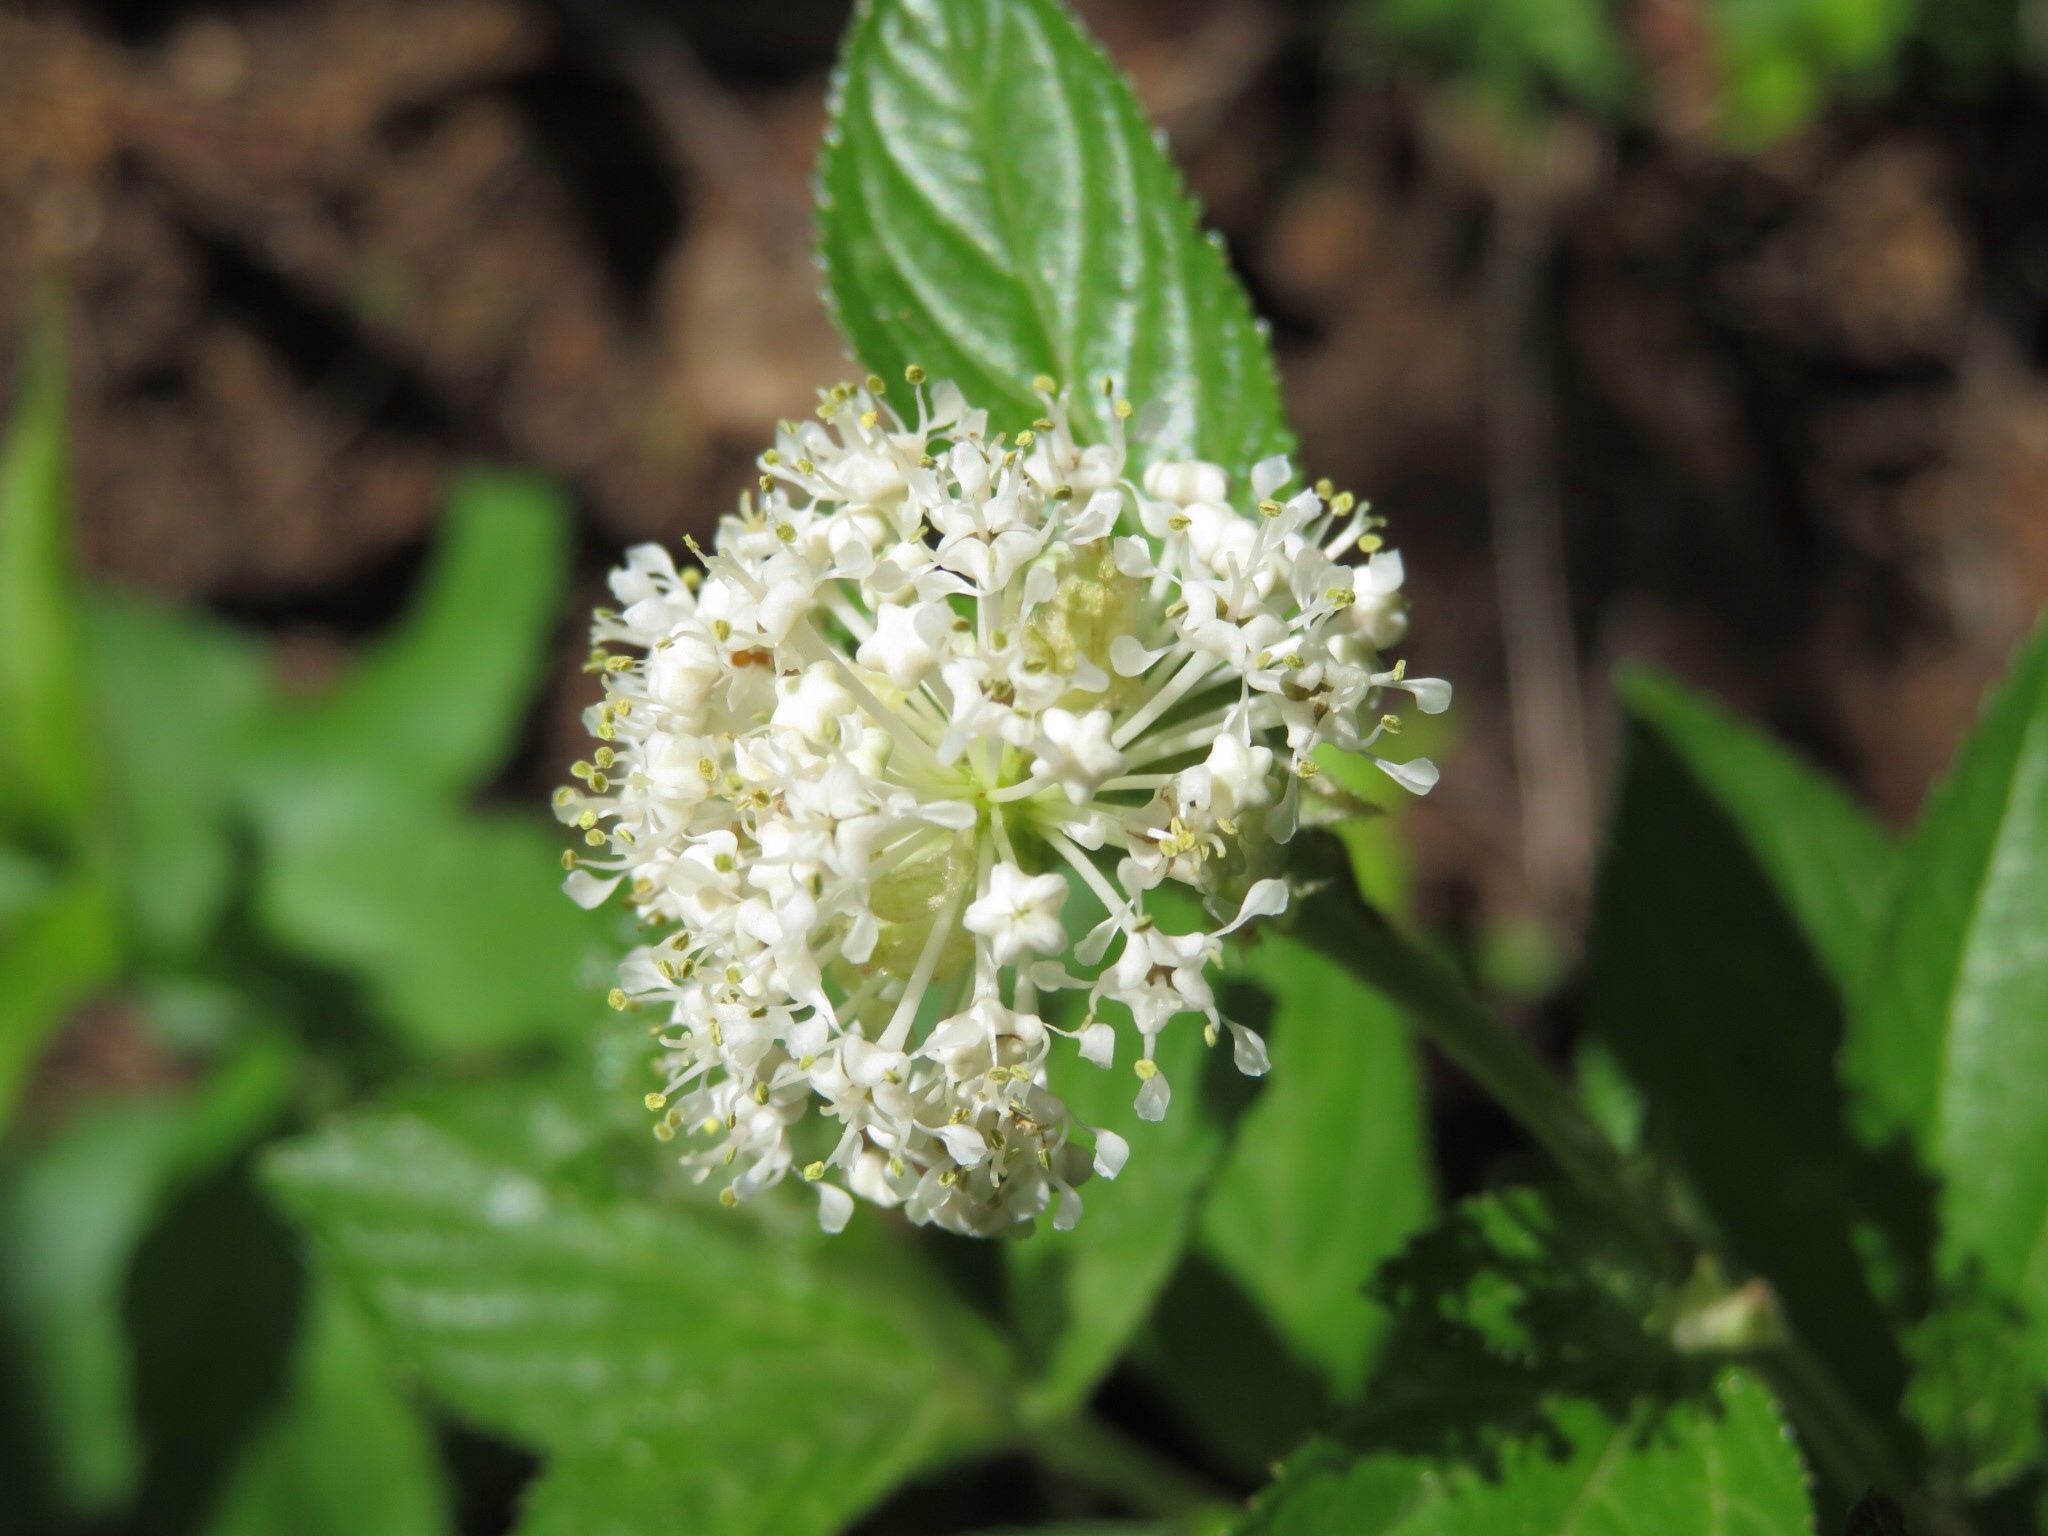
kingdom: Plantae
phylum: Tracheophyta
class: Magnoliopsida
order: Rosales
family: Rhamnaceae
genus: Ceanothus
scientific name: Ceanothus herbaceus
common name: Inland ceanothus
